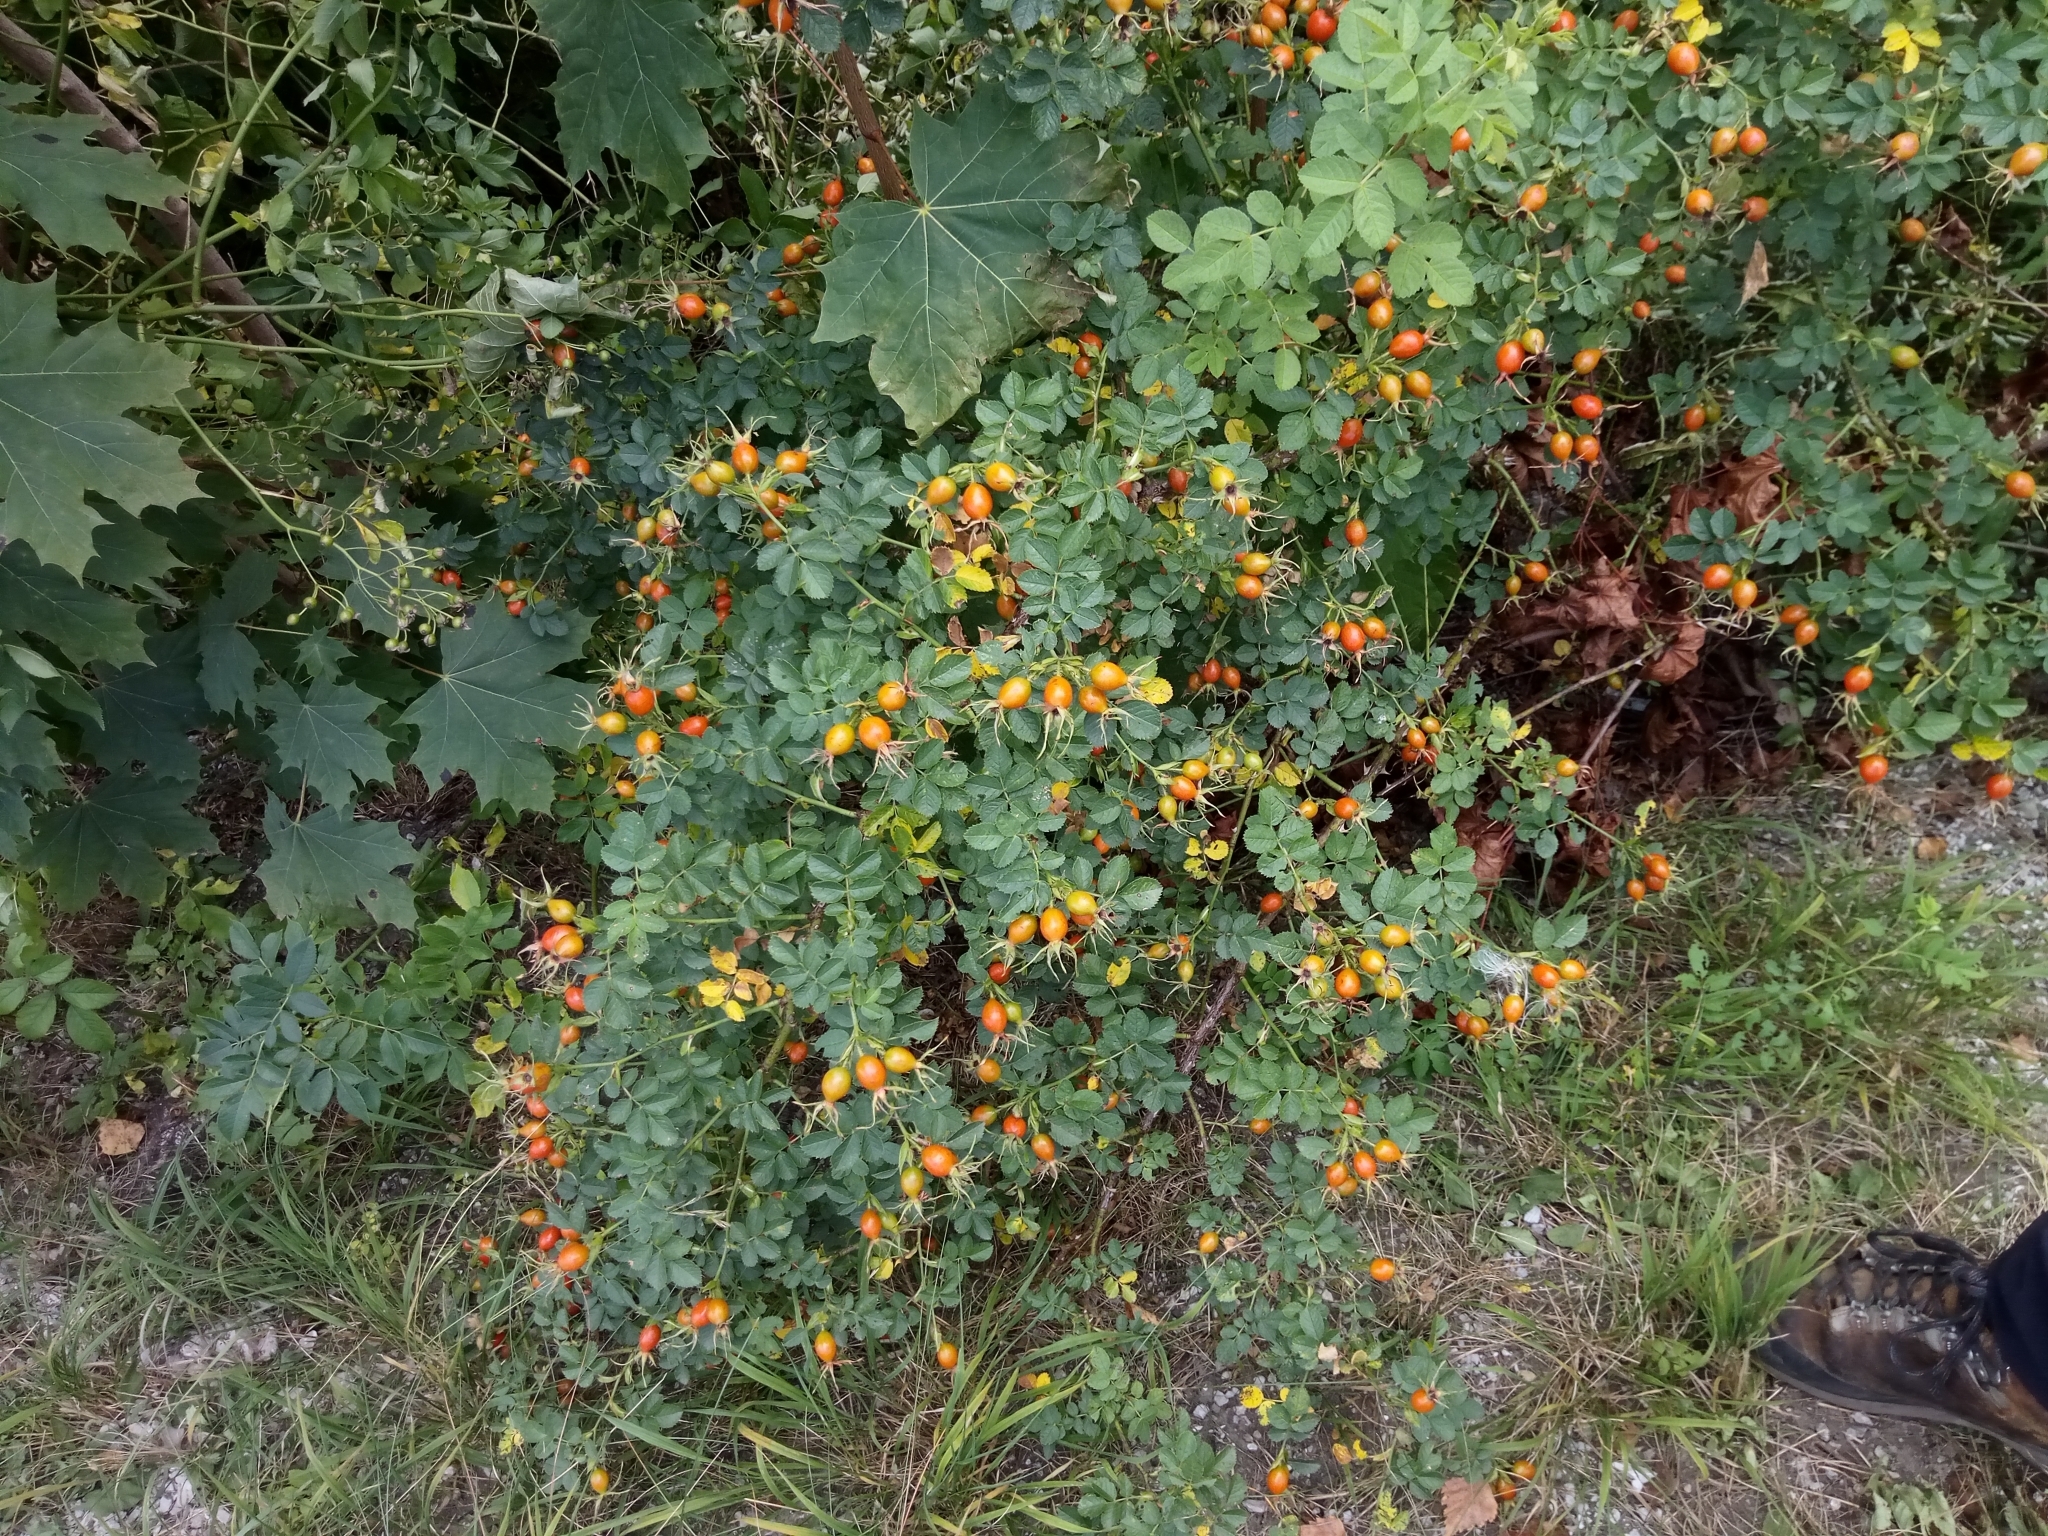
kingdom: Plantae
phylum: Tracheophyta
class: Magnoliopsida
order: Rosales
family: Rosaceae
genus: Rosa
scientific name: Rosa rubiginosa
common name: Sweet-briar
